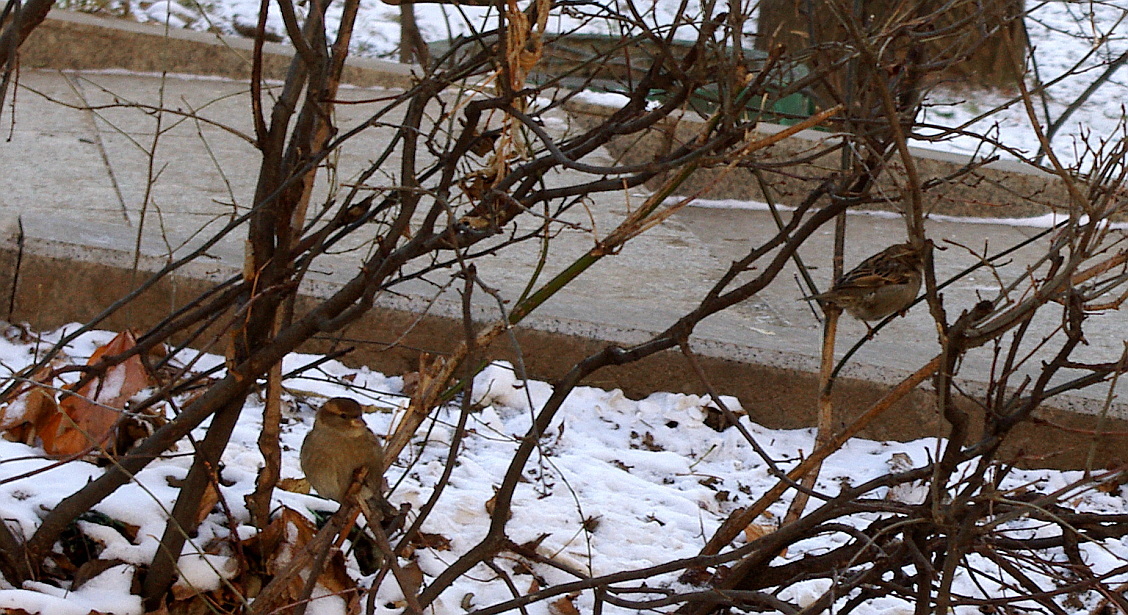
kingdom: Animalia
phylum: Chordata
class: Aves
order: Passeriformes
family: Passeridae
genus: Passer
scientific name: Passer domesticus
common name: House sparrow
